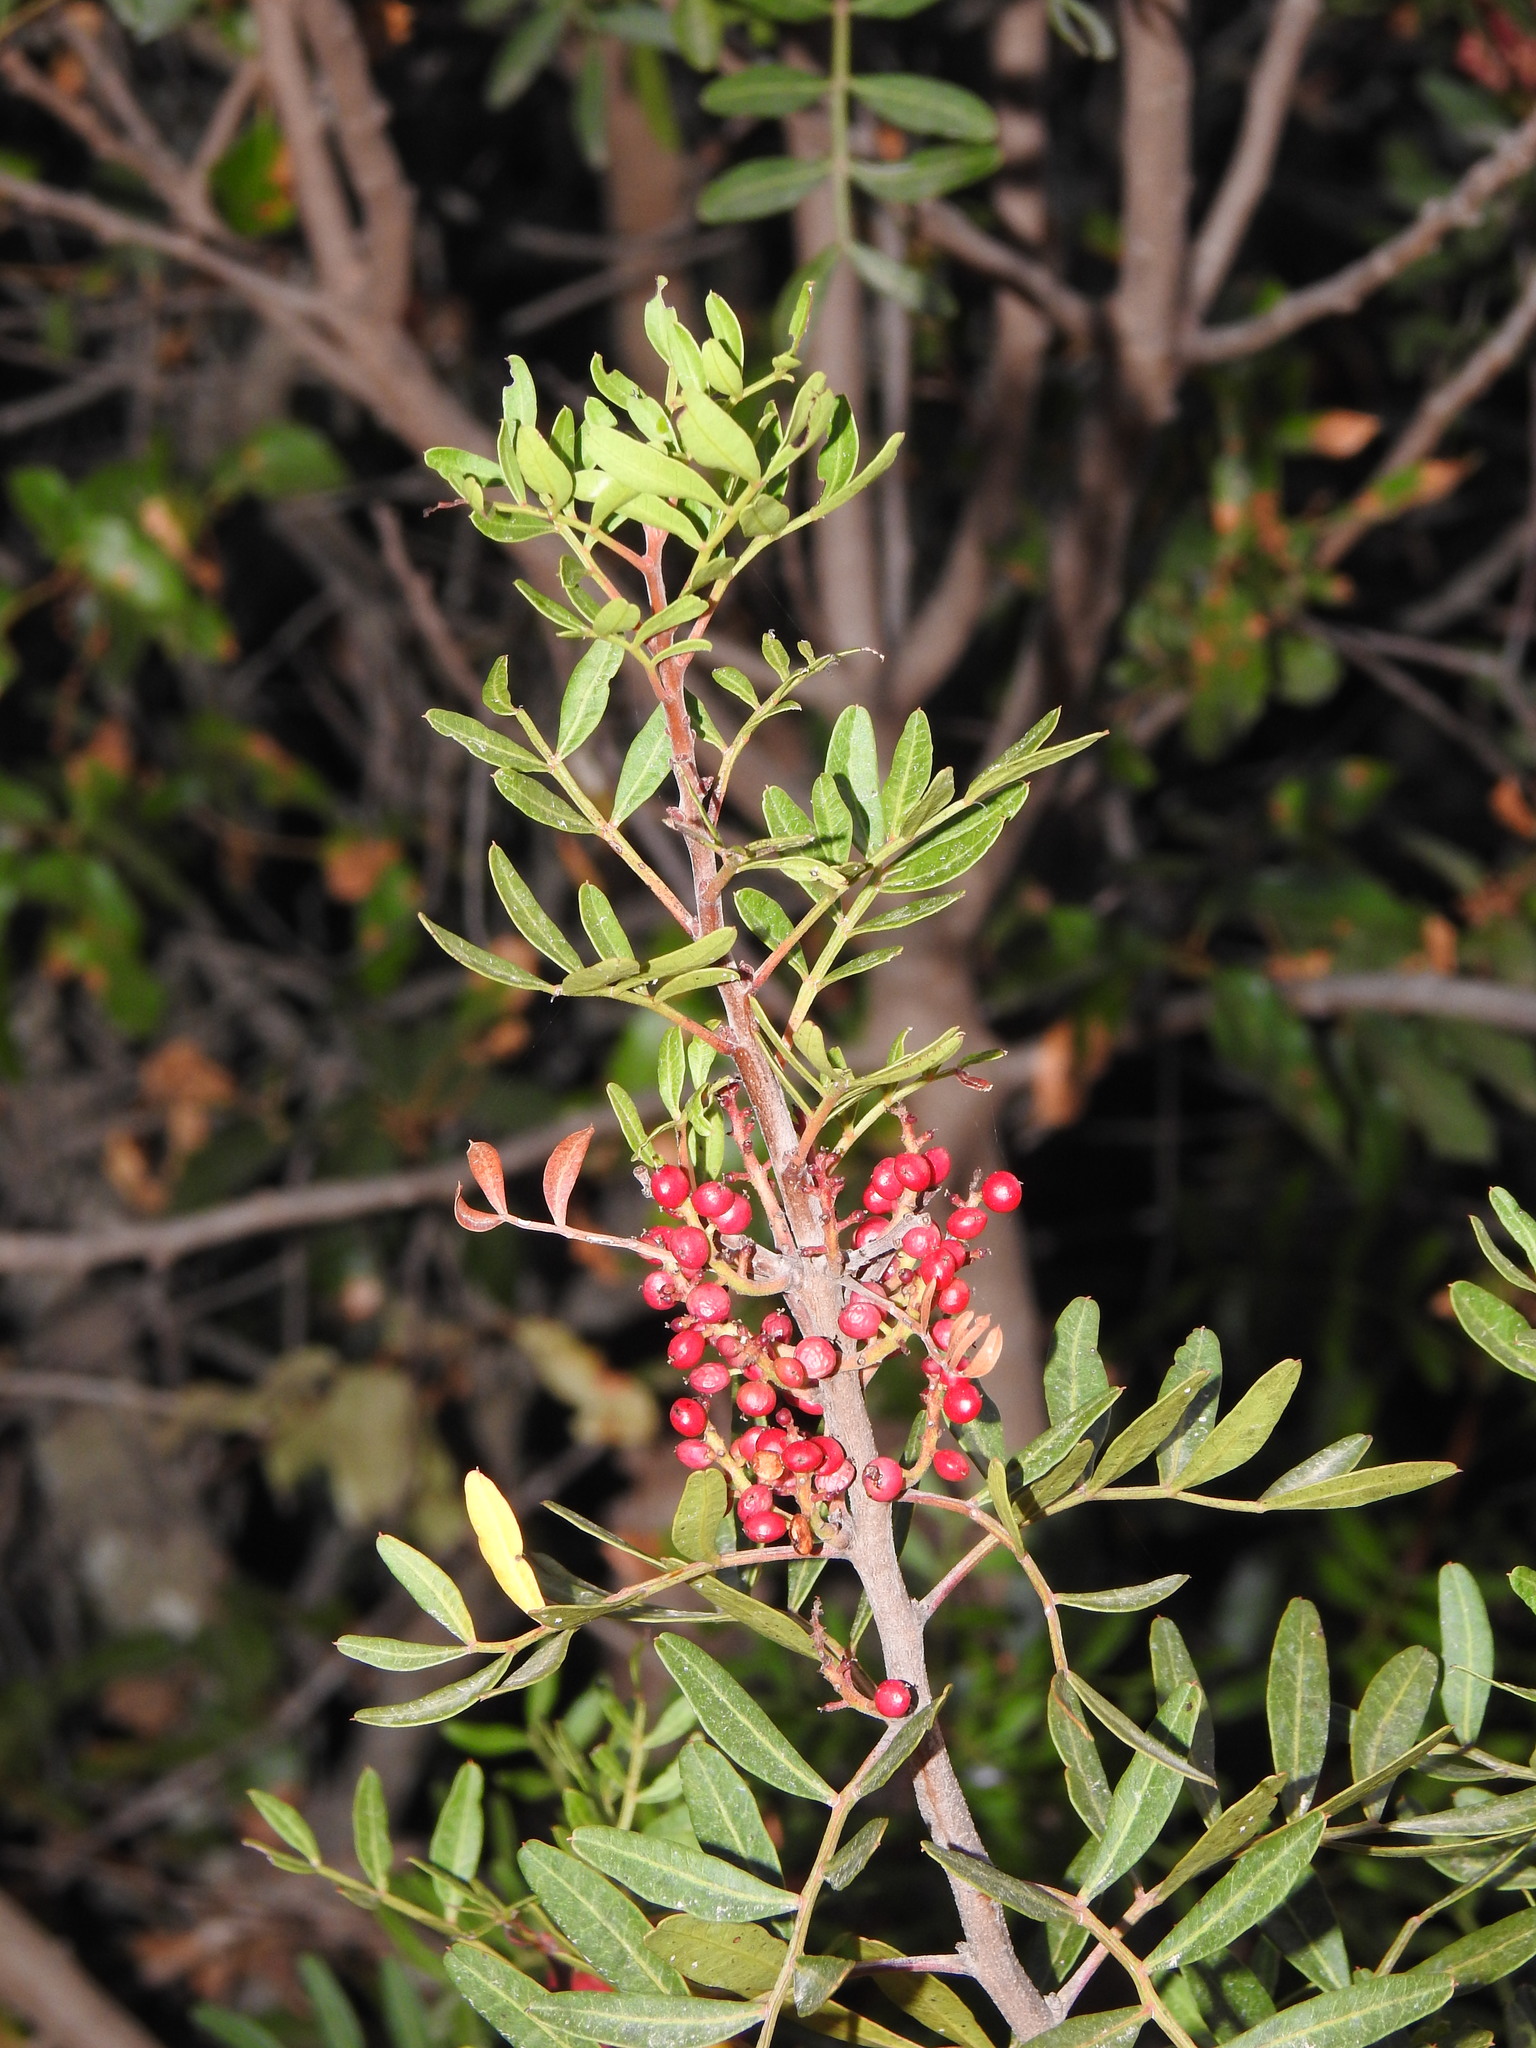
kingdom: Plantae
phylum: Tracheophyta
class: Magnoliopsida
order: Sapindales
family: Anacardiaceae
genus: Pistacia
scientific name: Pistacia lentiscus
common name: Lentisk
